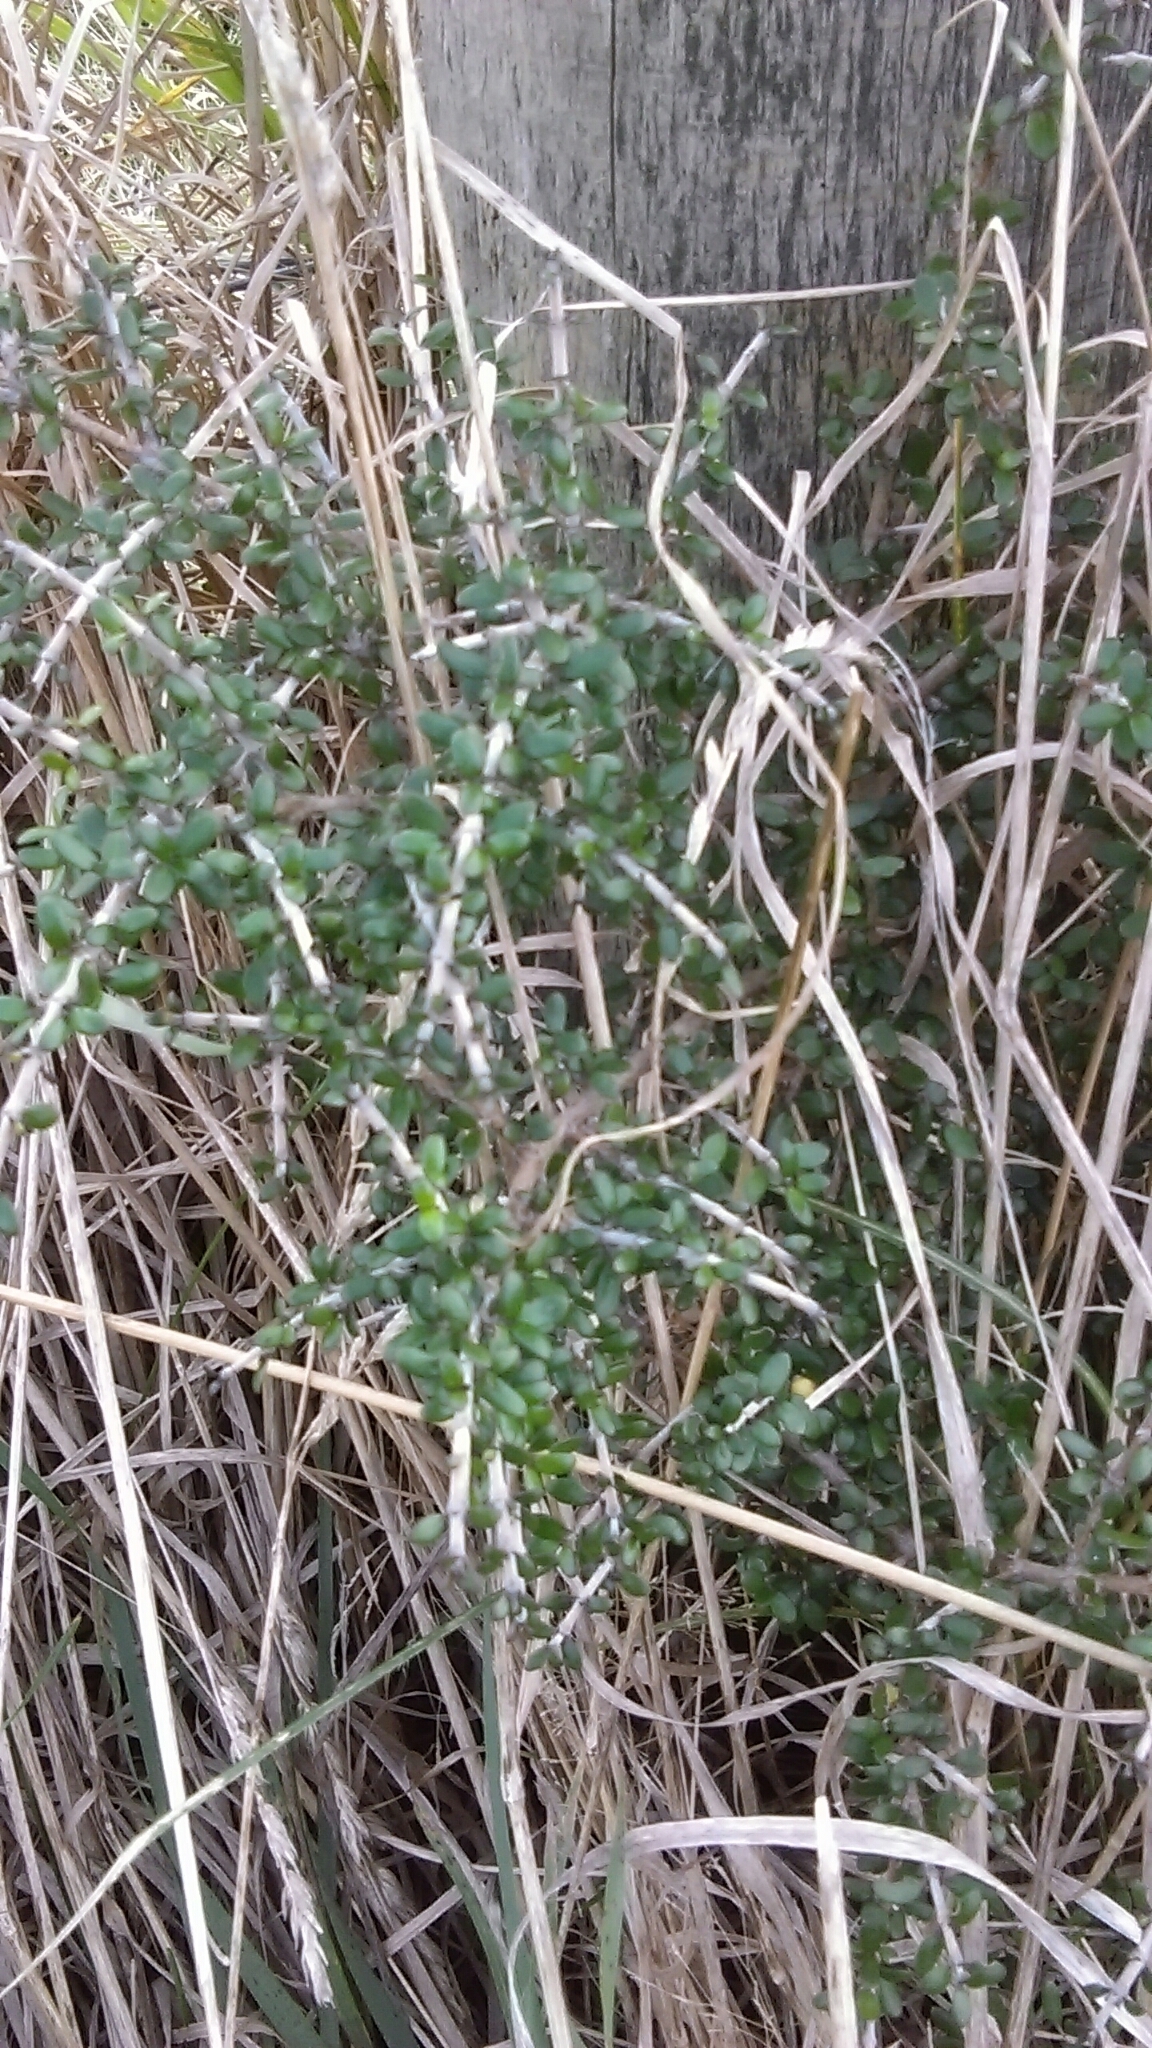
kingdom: Plantae
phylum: Tracheophyta
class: Magnoliopsida
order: Gentianales
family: Rubiaceae
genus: Coprosma
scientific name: Coprosma propinqua
